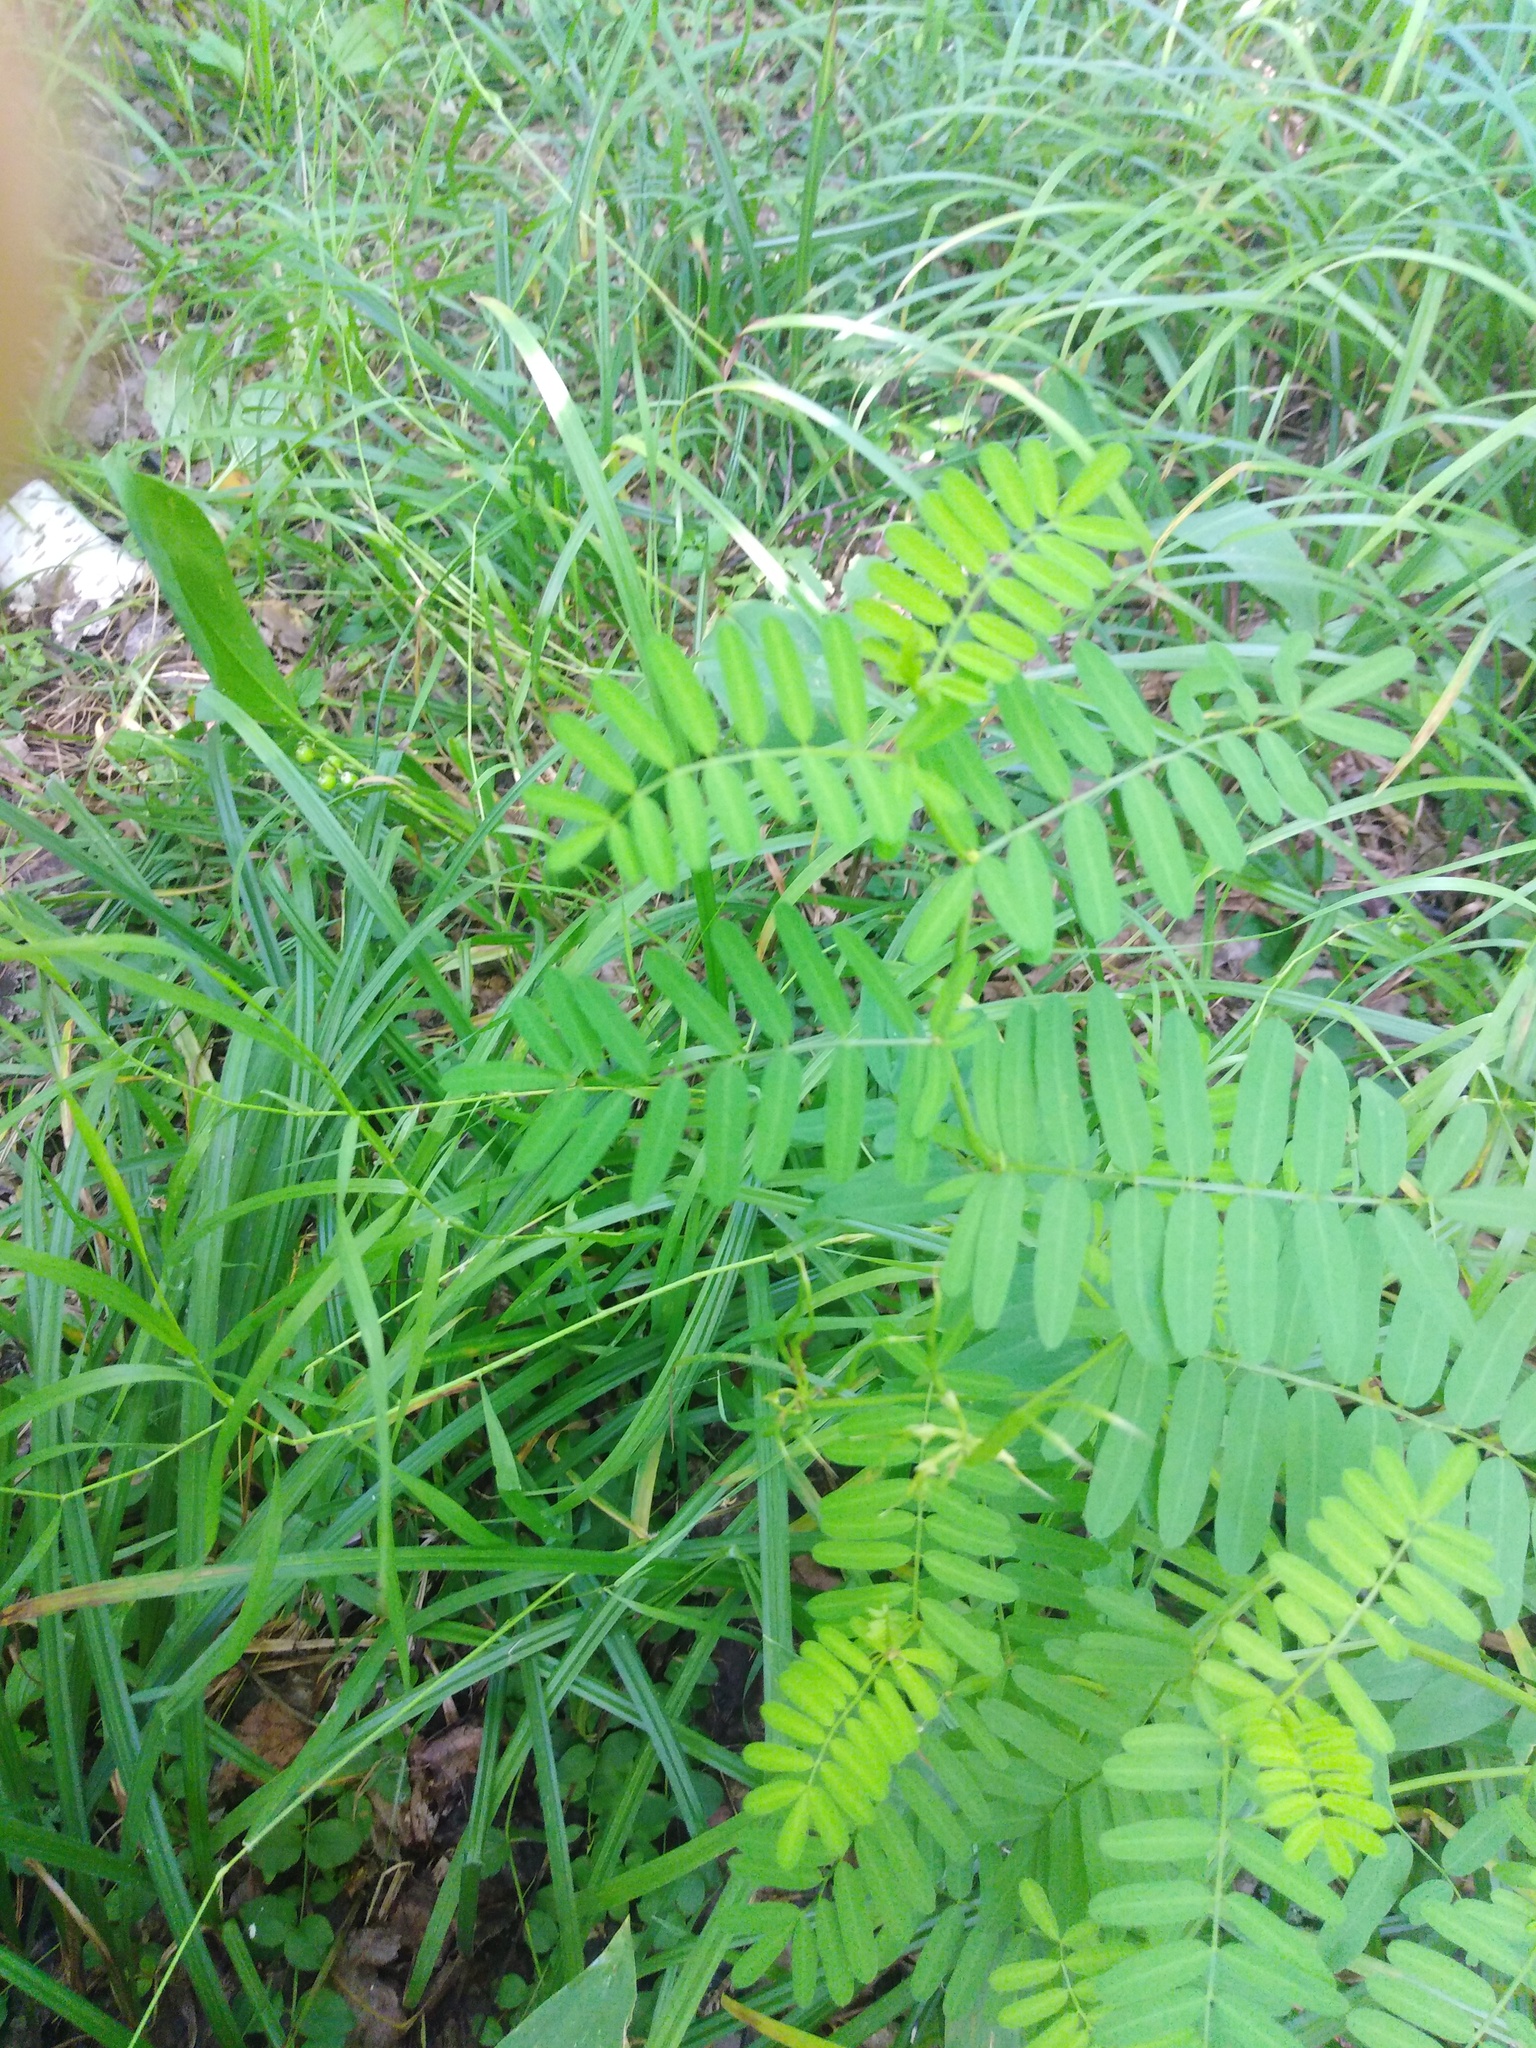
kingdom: Plantae
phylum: Tracheophyta
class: Magnoliopsida
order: Fabales
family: Fabaceae
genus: Vicia
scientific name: Vicia sepium
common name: Bush vetch
